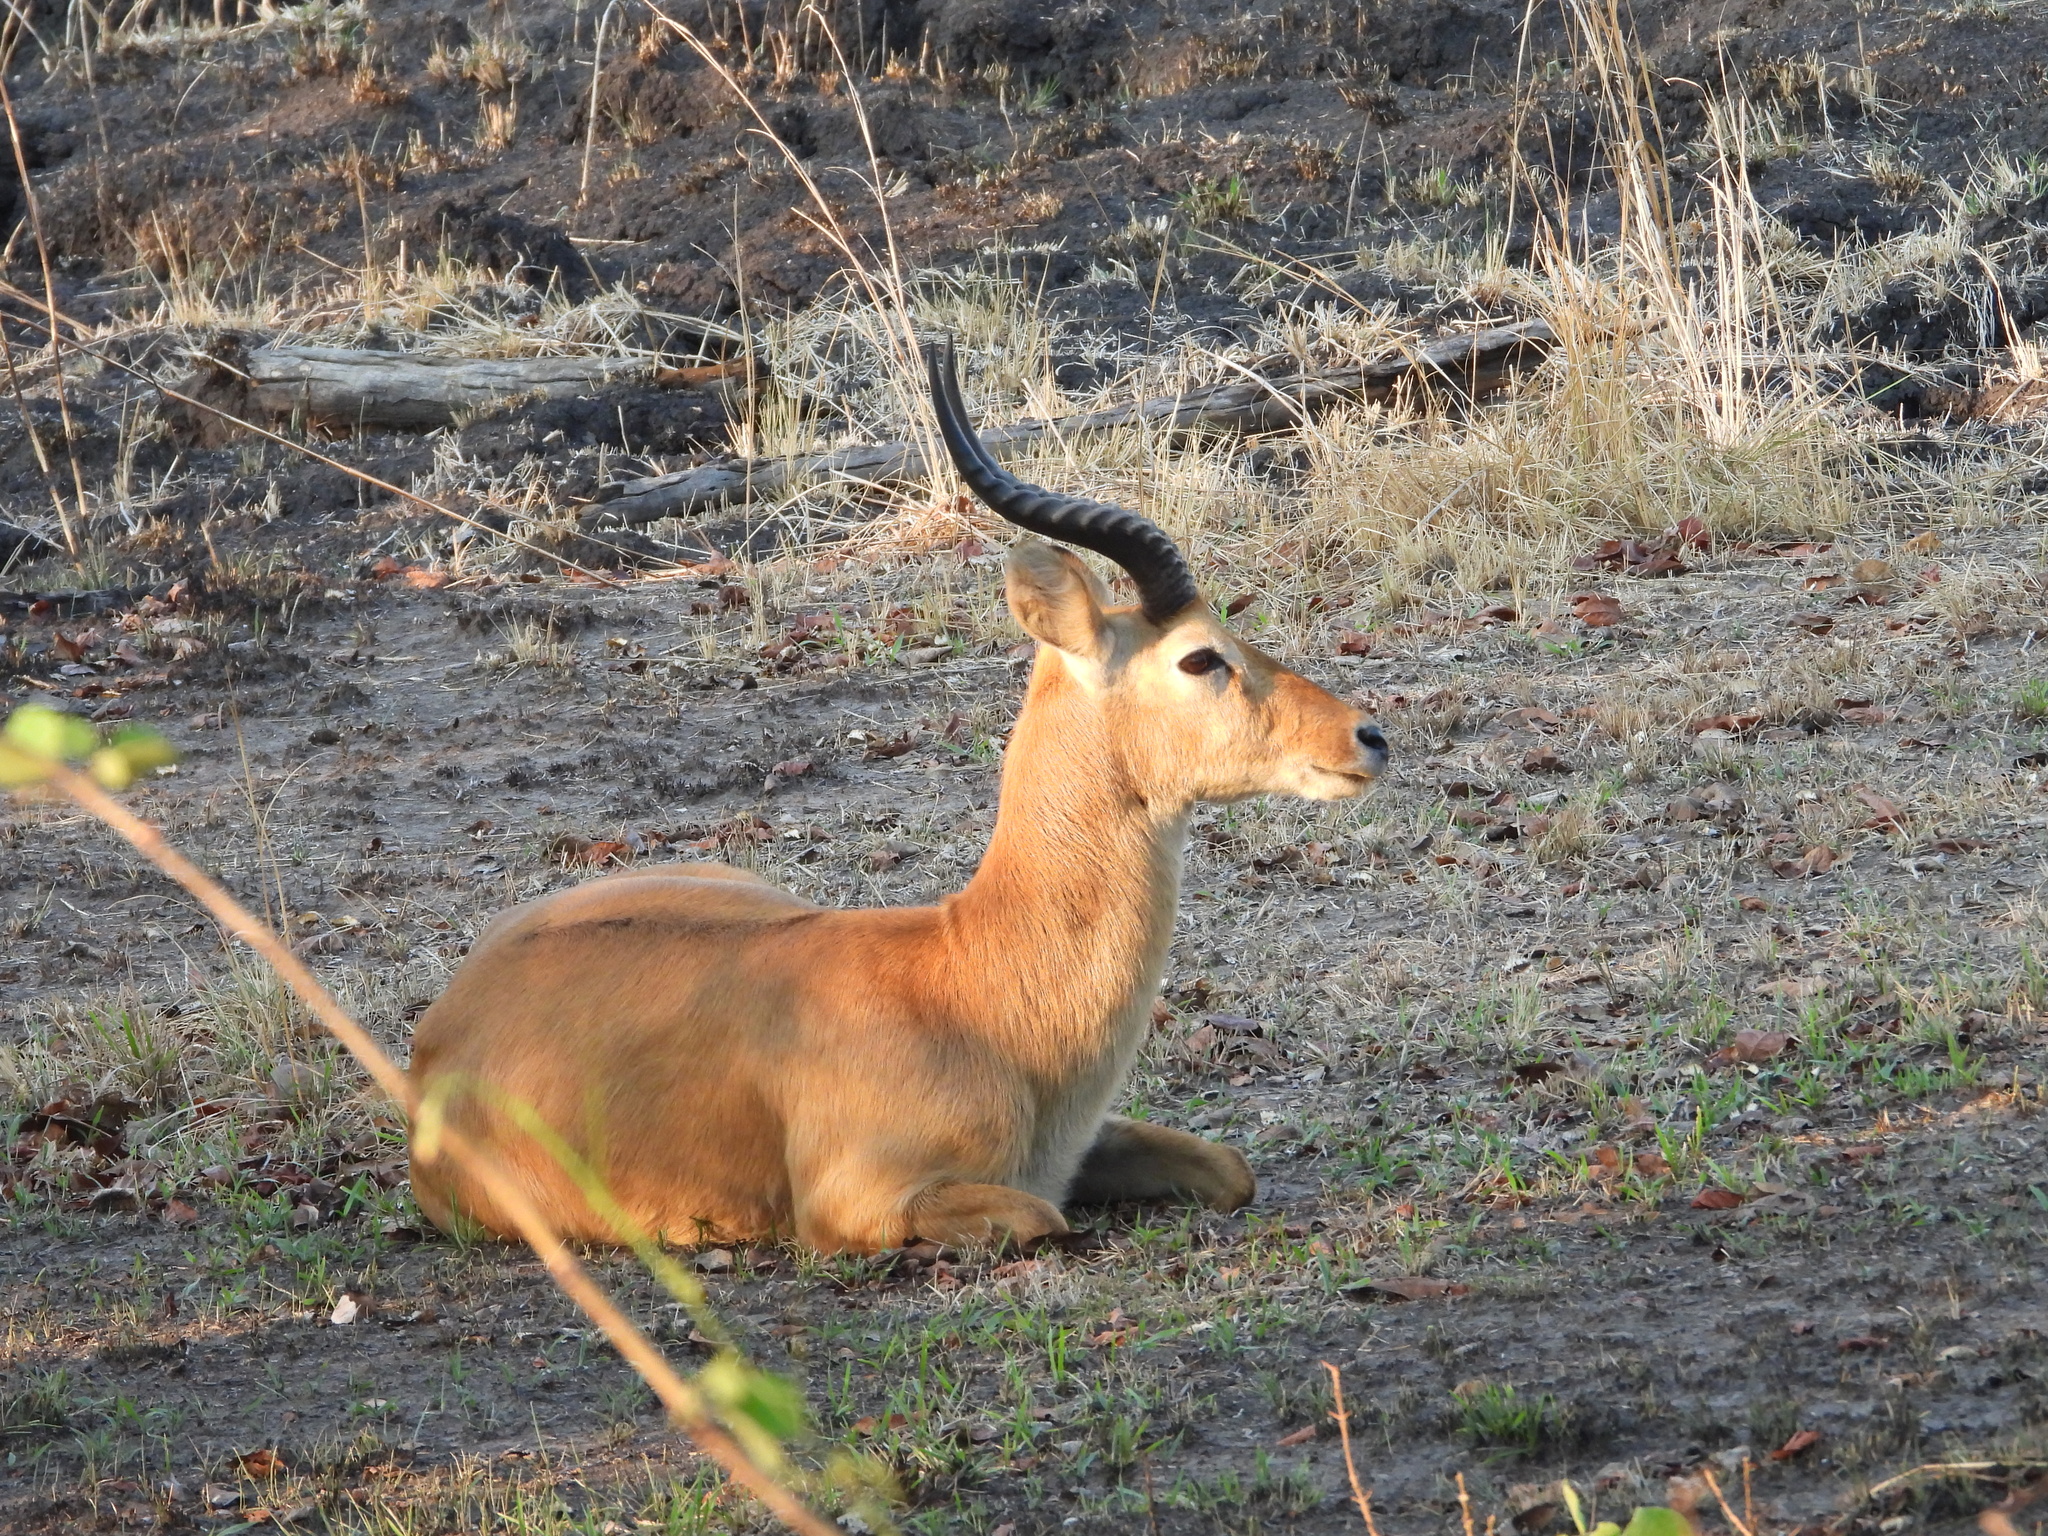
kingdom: Animalia
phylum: Chordata
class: Mammalia
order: Artiodactyla
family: Bovidae
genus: Kobus
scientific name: Kobus vardonii
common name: Puku
